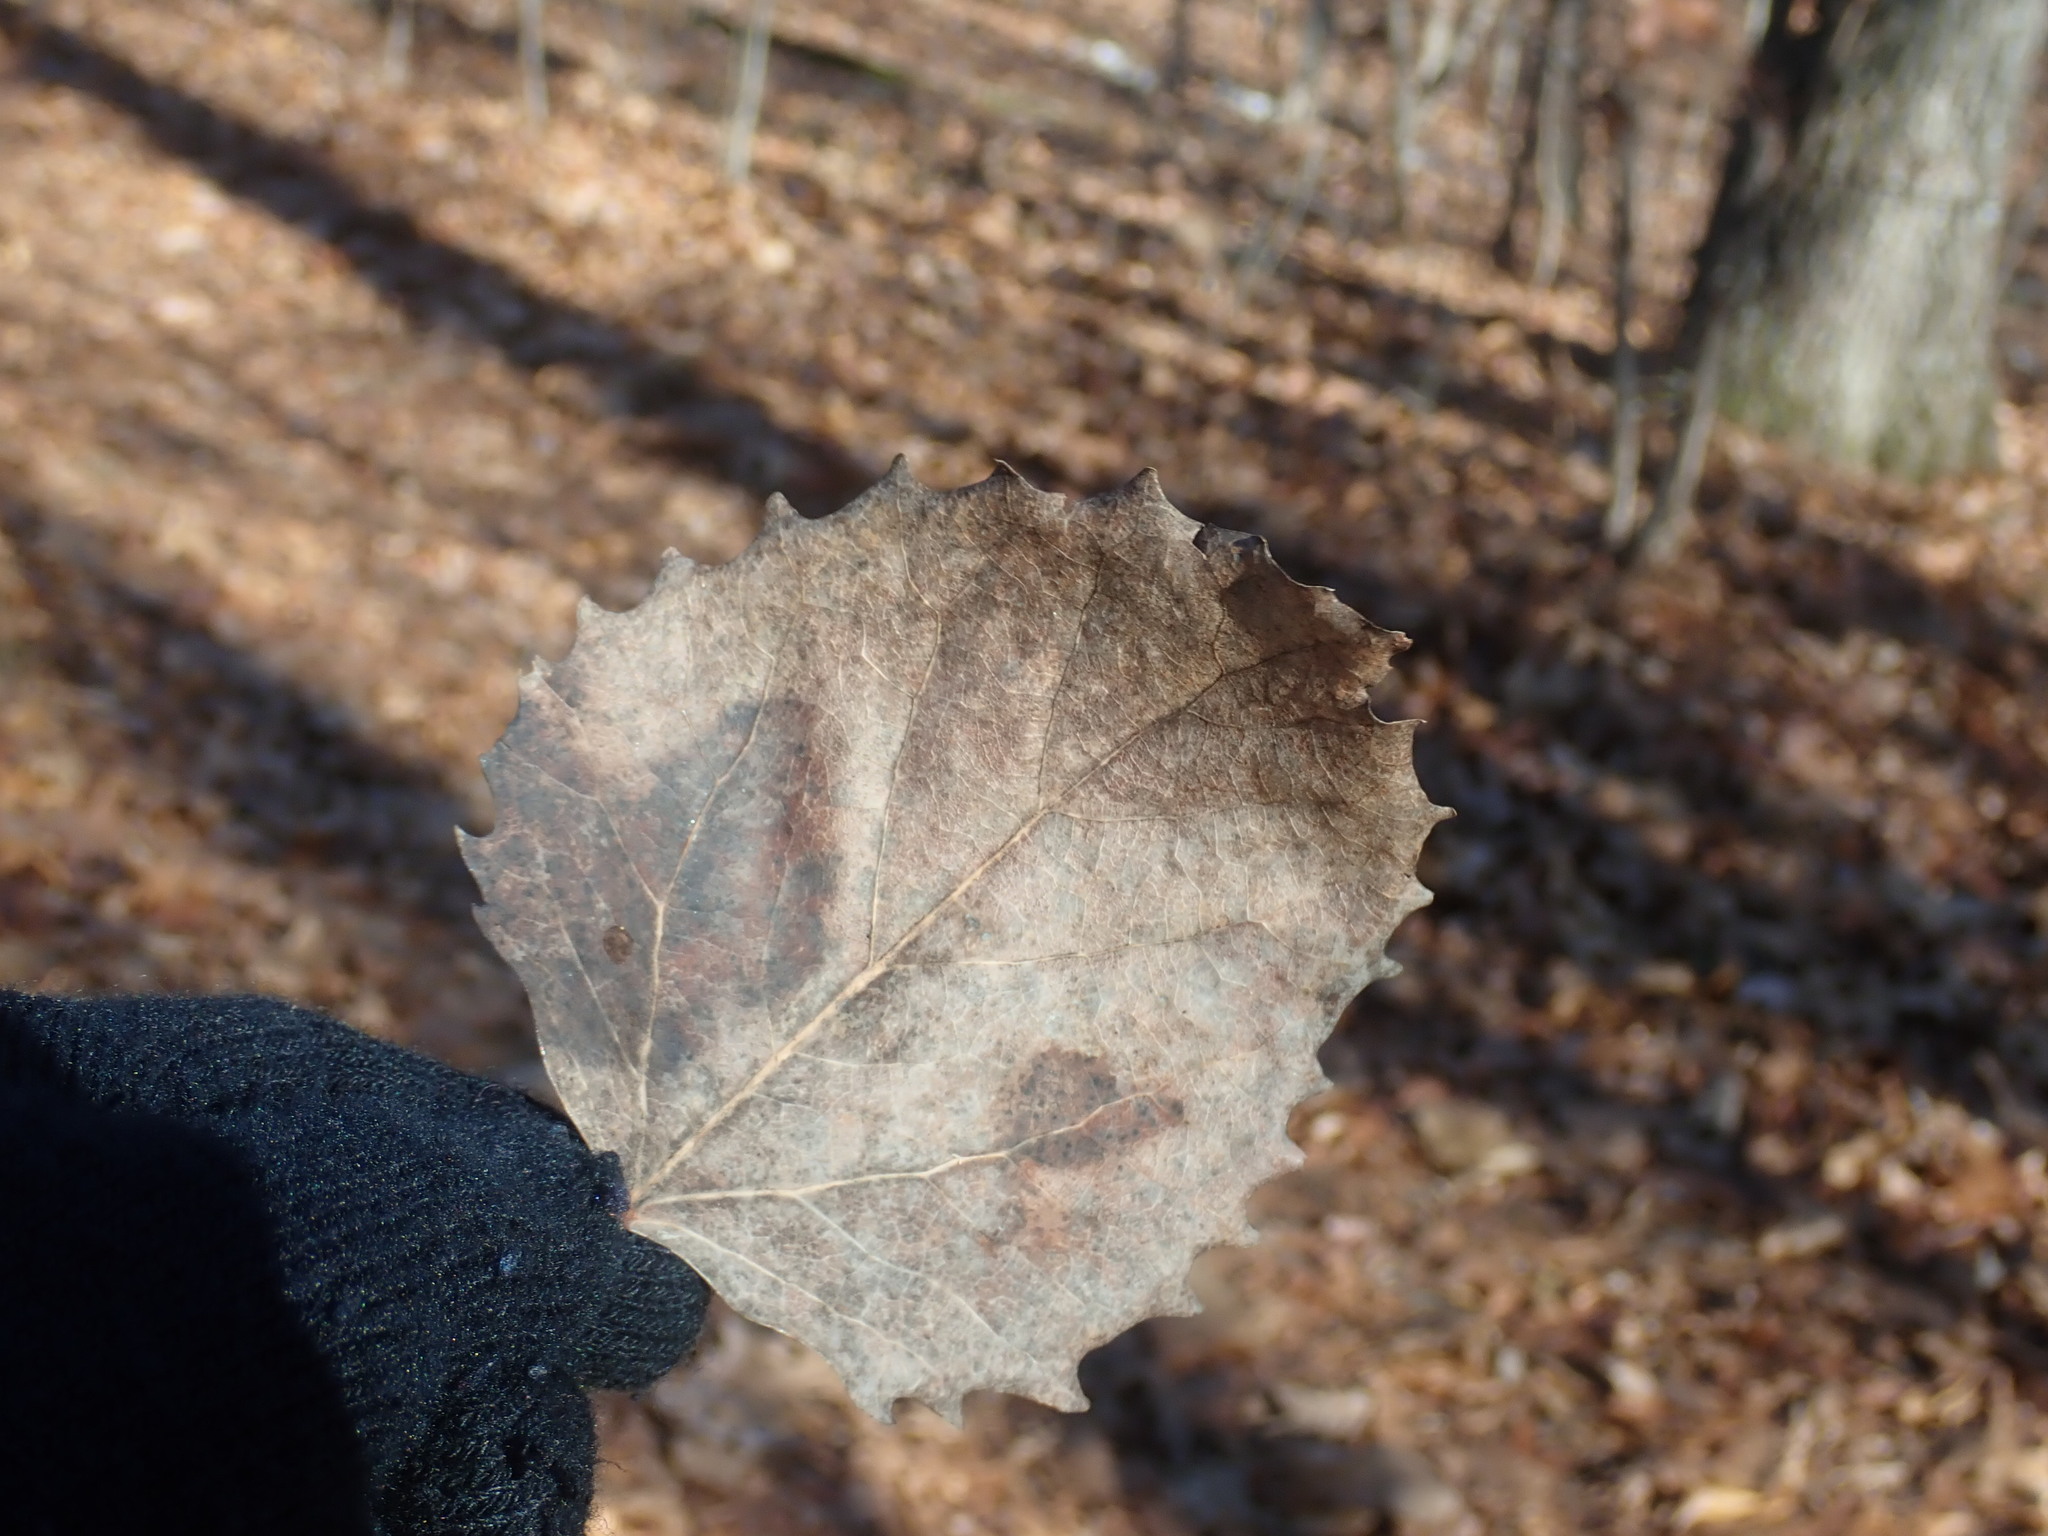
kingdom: Plantae
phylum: Tracheophyta
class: Magnoliopsida
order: Malpighiales
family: Salicaceae
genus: Populus
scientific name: Populus grandidentata
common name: Bigtooth aspen
